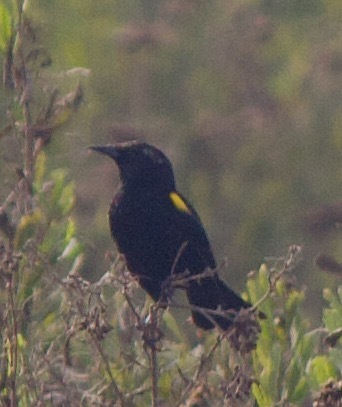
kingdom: Animalia
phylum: Chordata
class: Aves
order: Passeriformes
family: Icteridae
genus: Agelasticus
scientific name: Agelasticus thilius
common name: Yellow-winged blackbird
